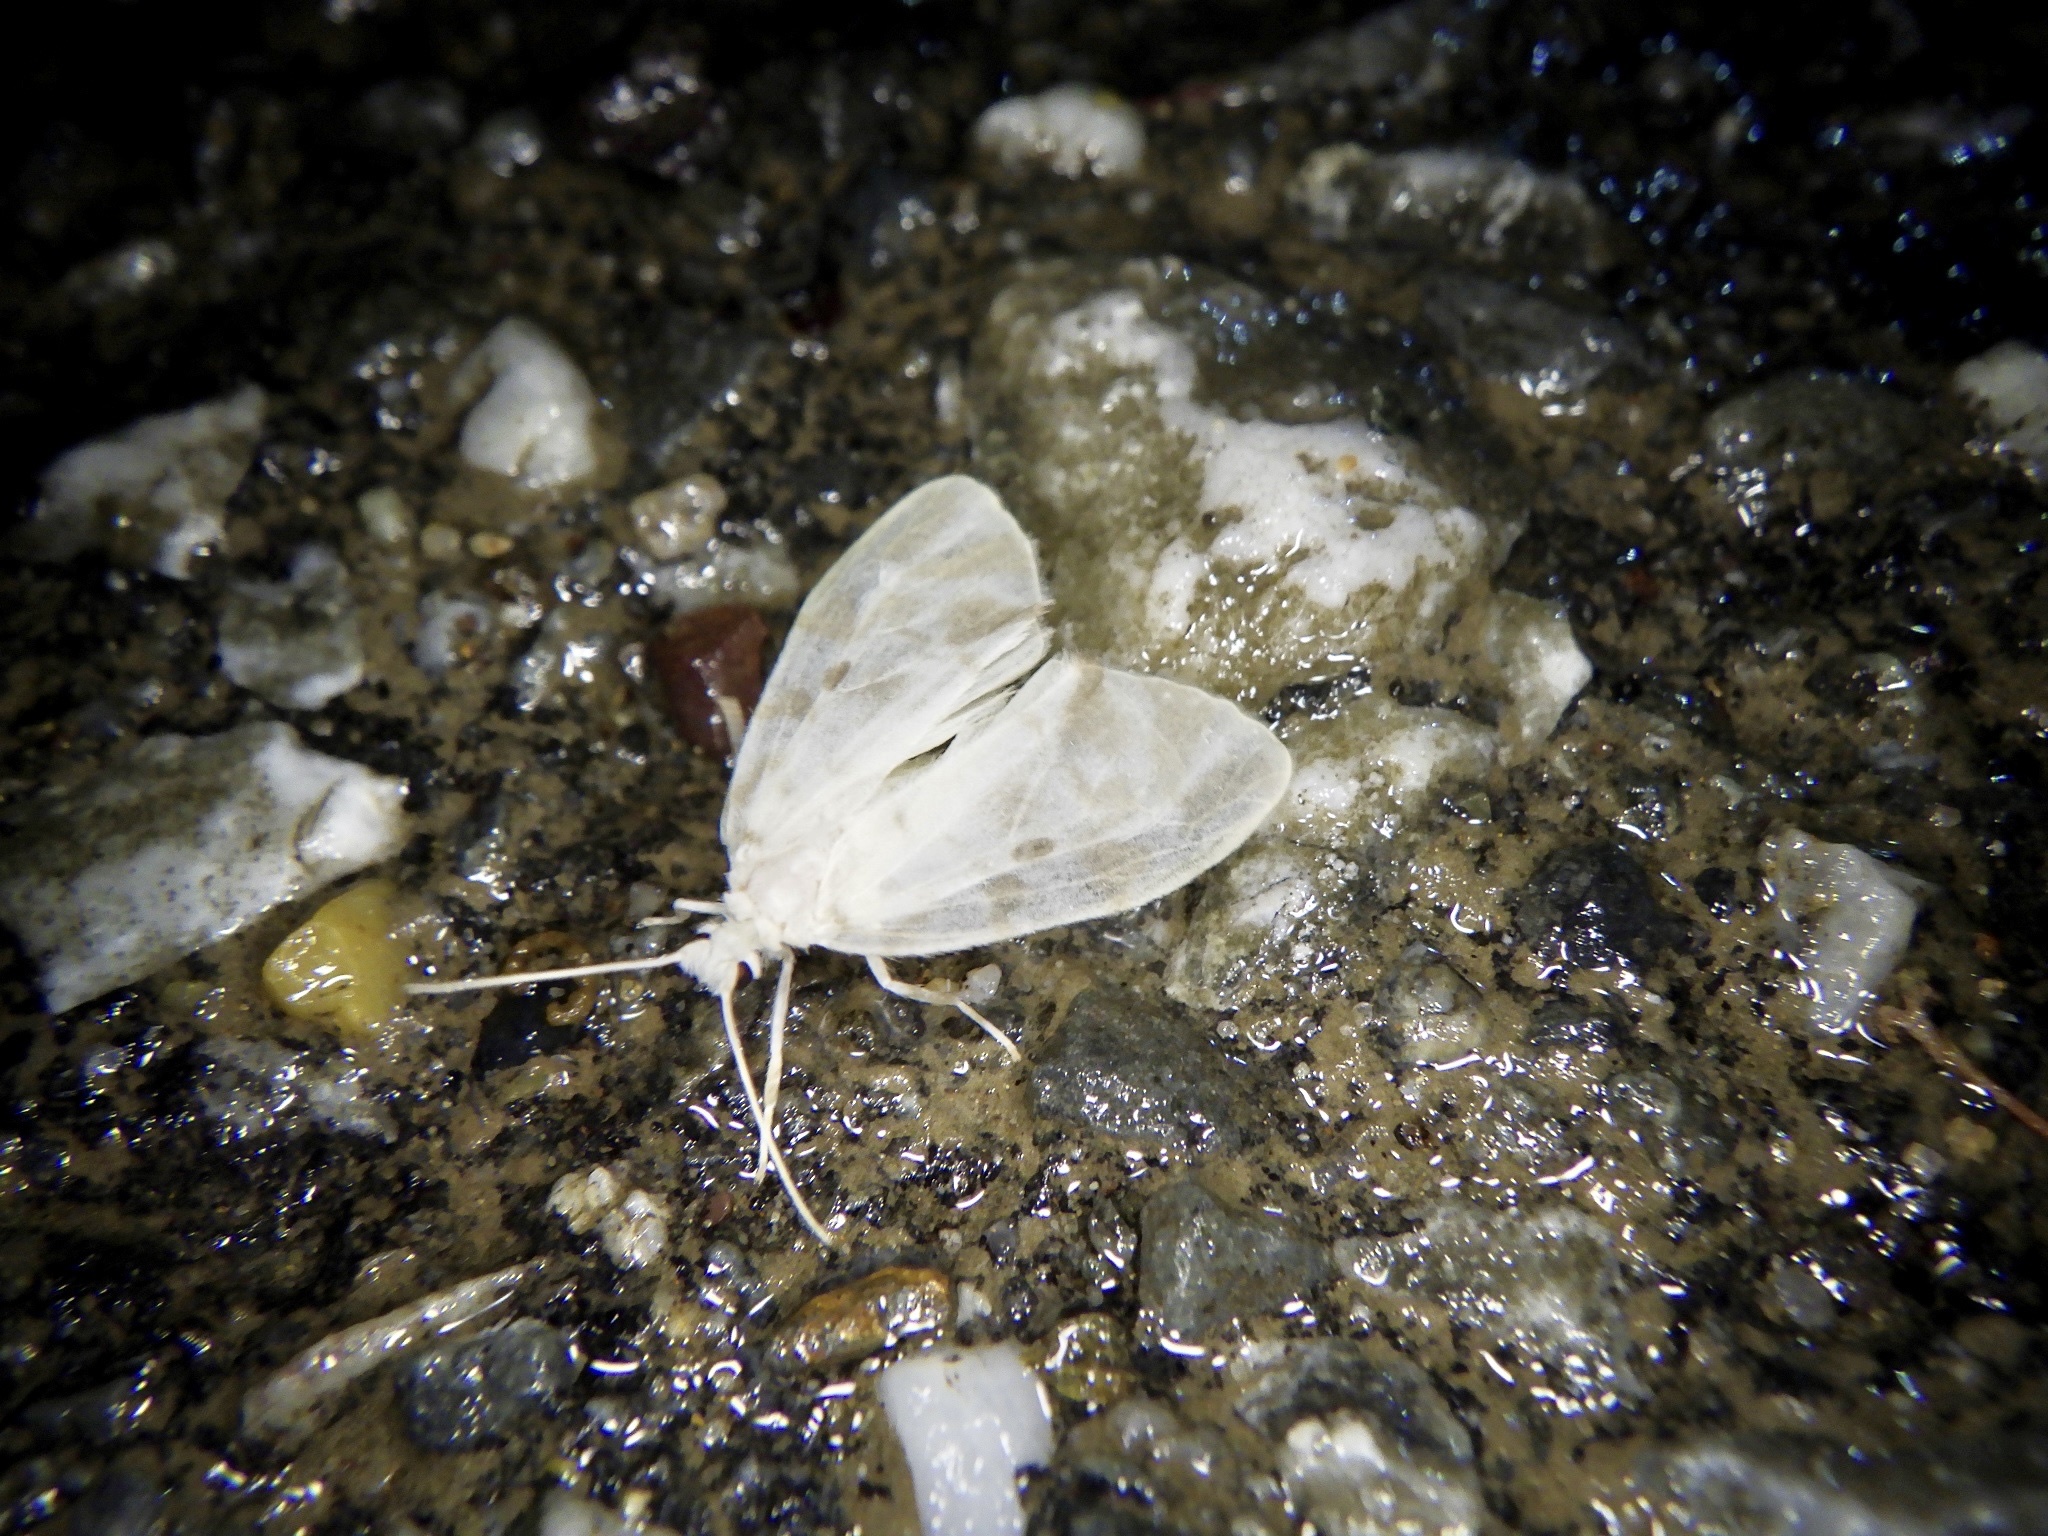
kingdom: Animalia
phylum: Arthropoda
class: Insecta
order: Lepidoptera
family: Erebidae
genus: Nudaria
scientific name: Nudaria ranruna
